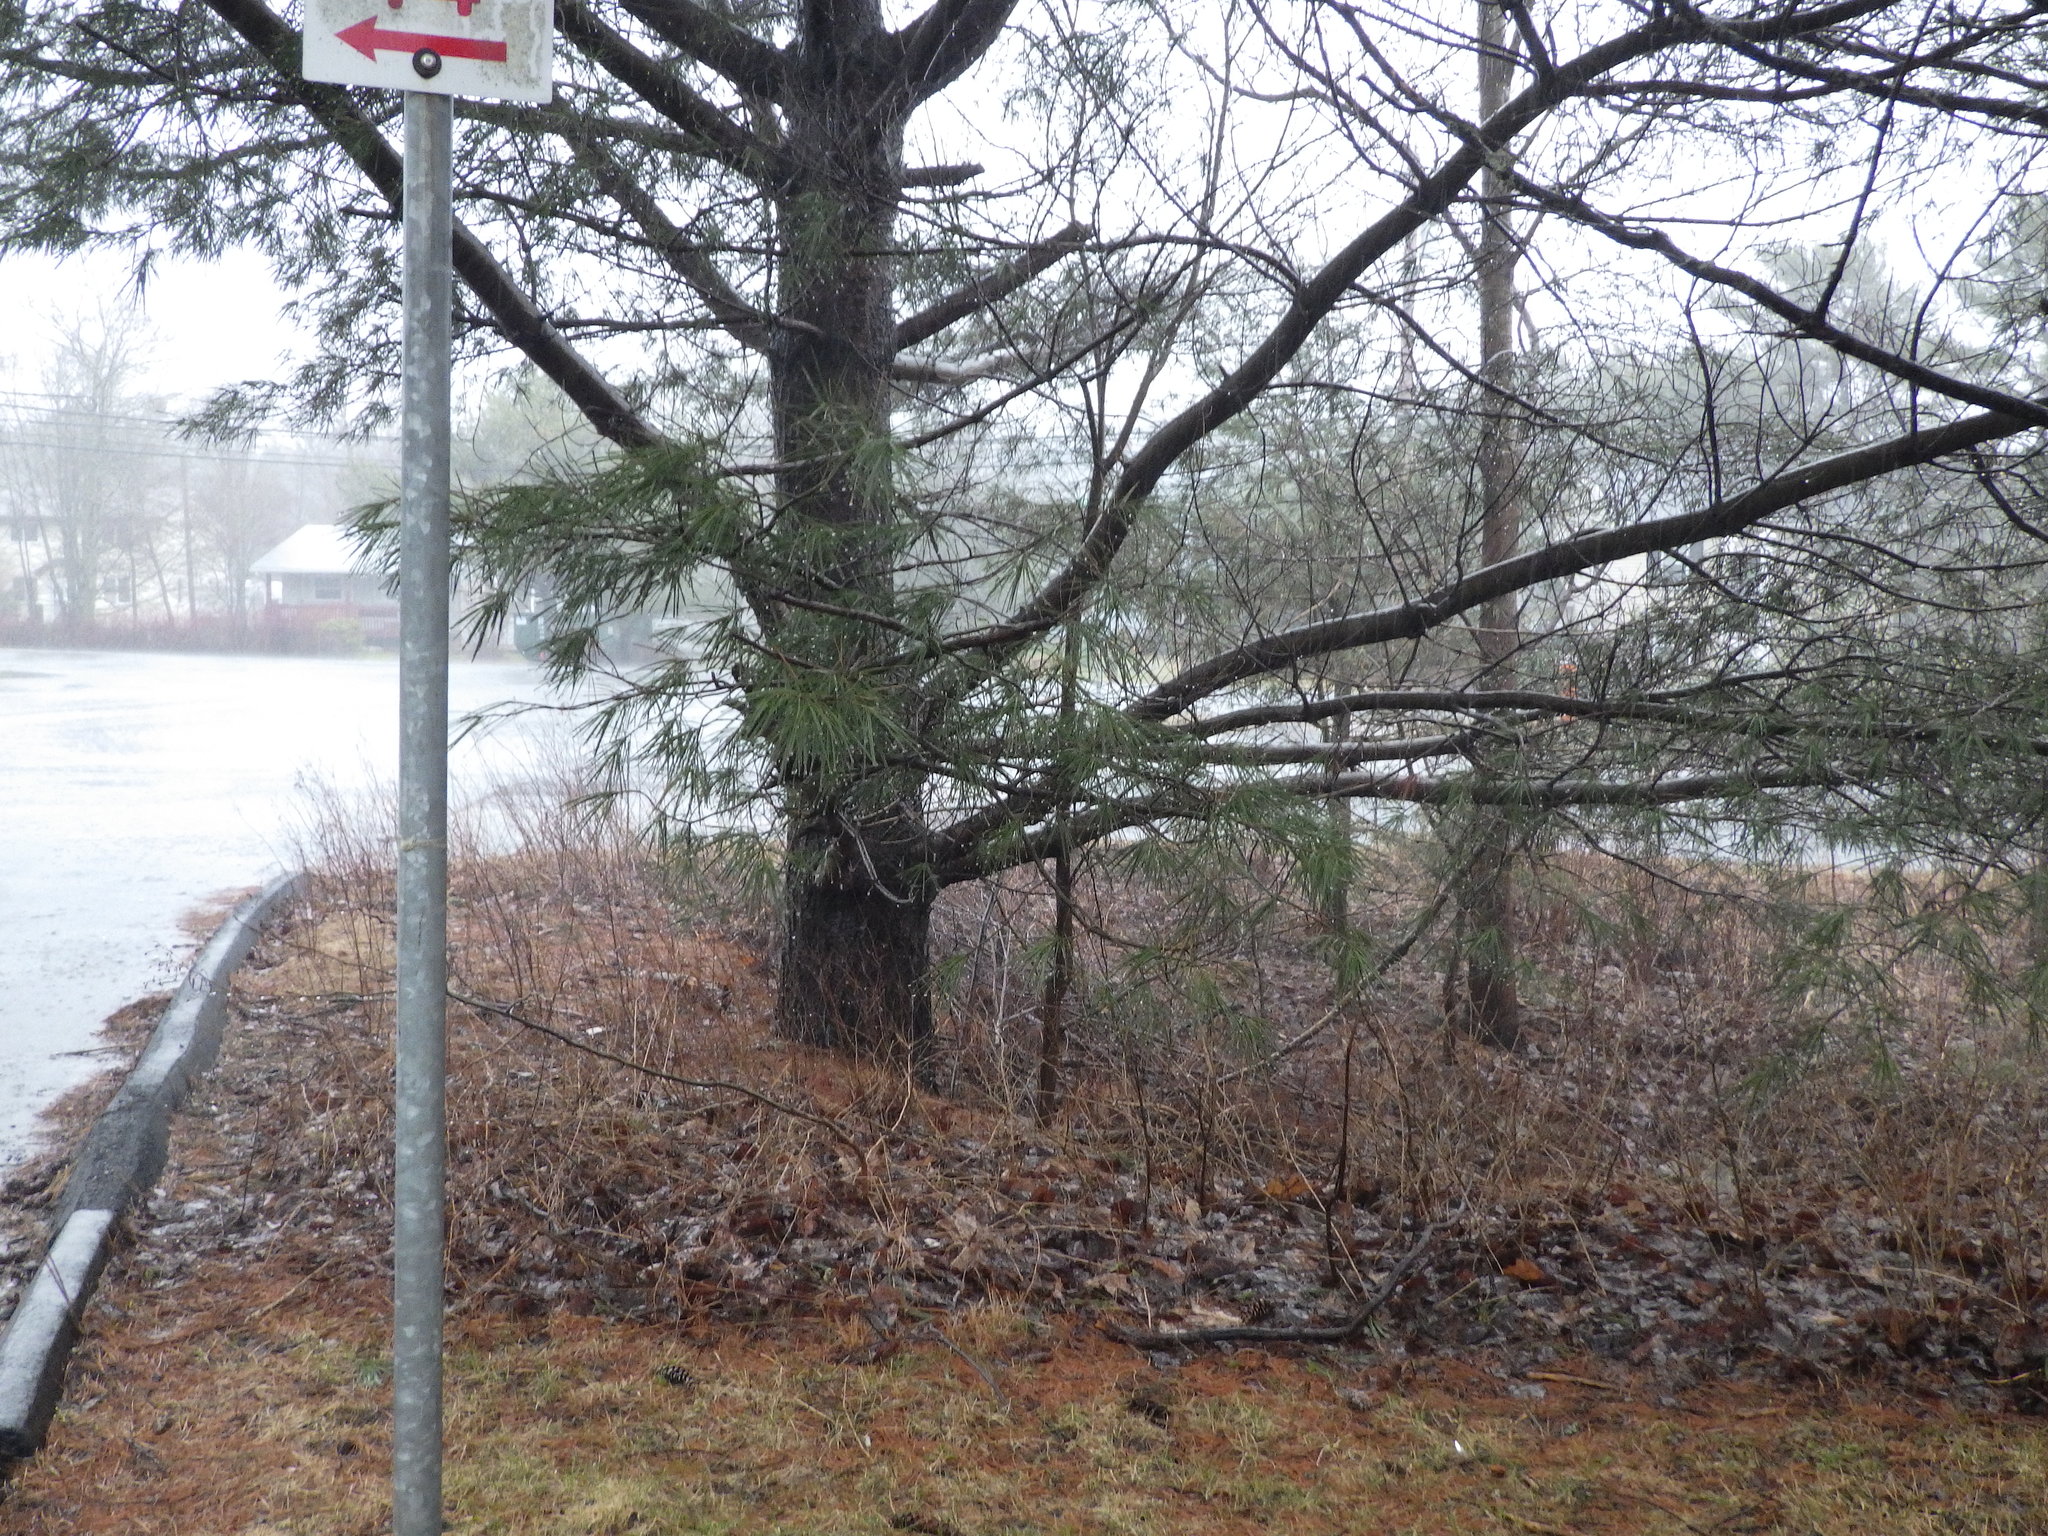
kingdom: Plantae
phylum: Tracheophyta
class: Pinopsida
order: Pinales
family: Pinaceae
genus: Pinus
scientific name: Pinus strobus
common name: Weymouth pine
